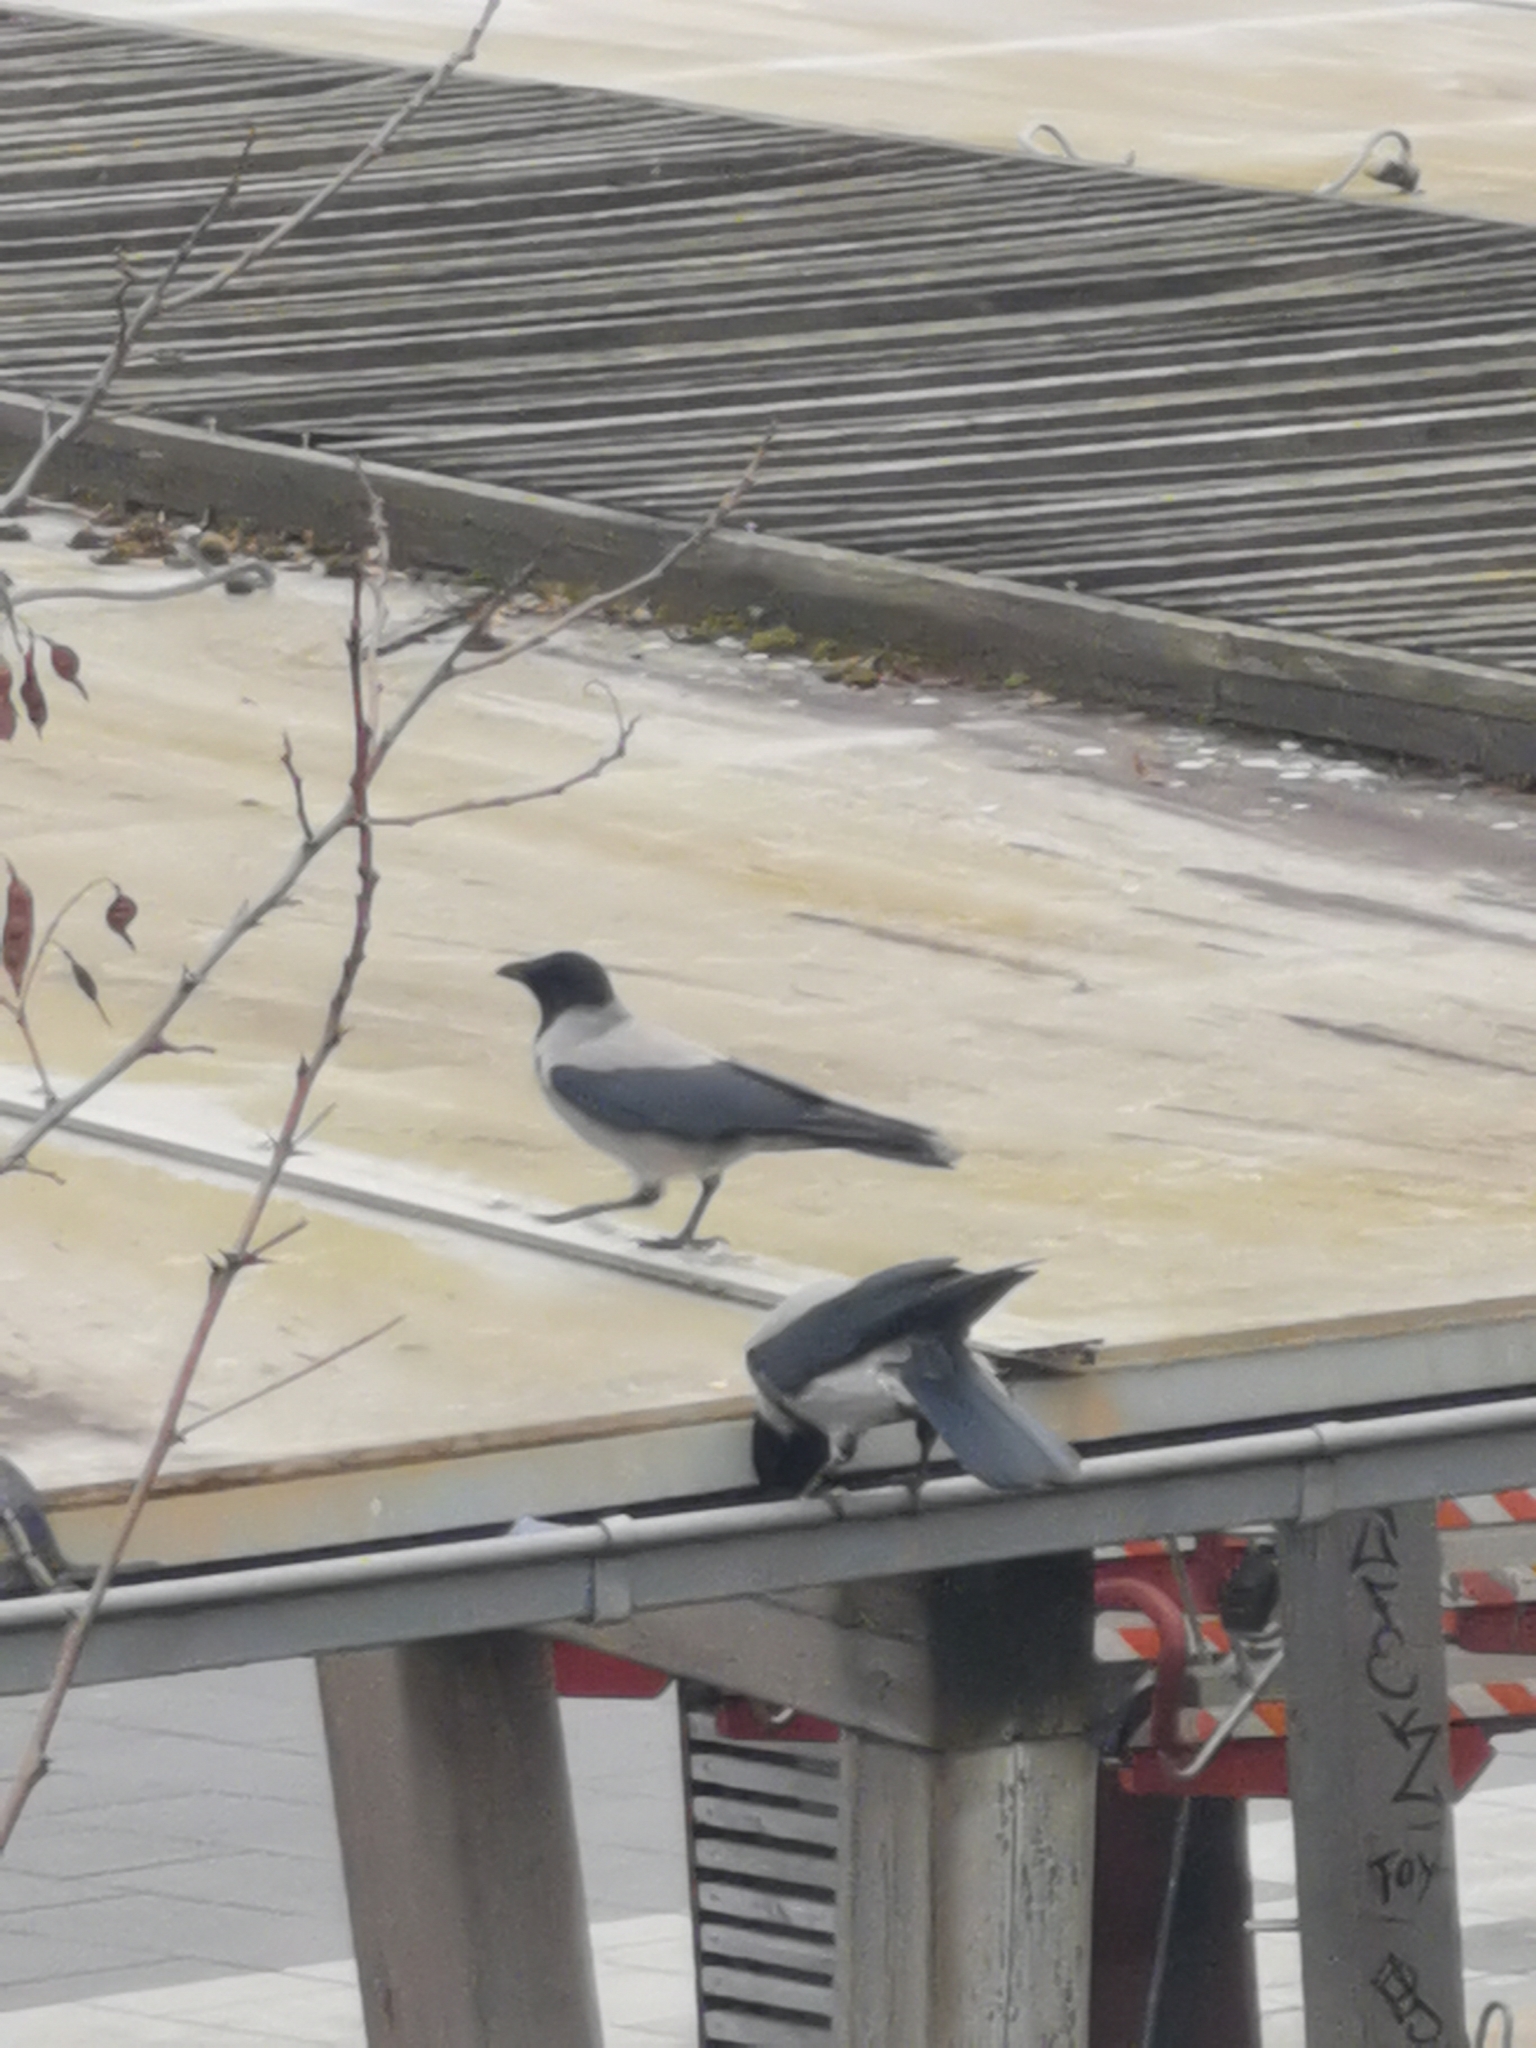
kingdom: Animalia
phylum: Chordata
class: Aves
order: Passeriformes
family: Corvidae
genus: Corvus
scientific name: Corvus cornix
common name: Hooded crow
